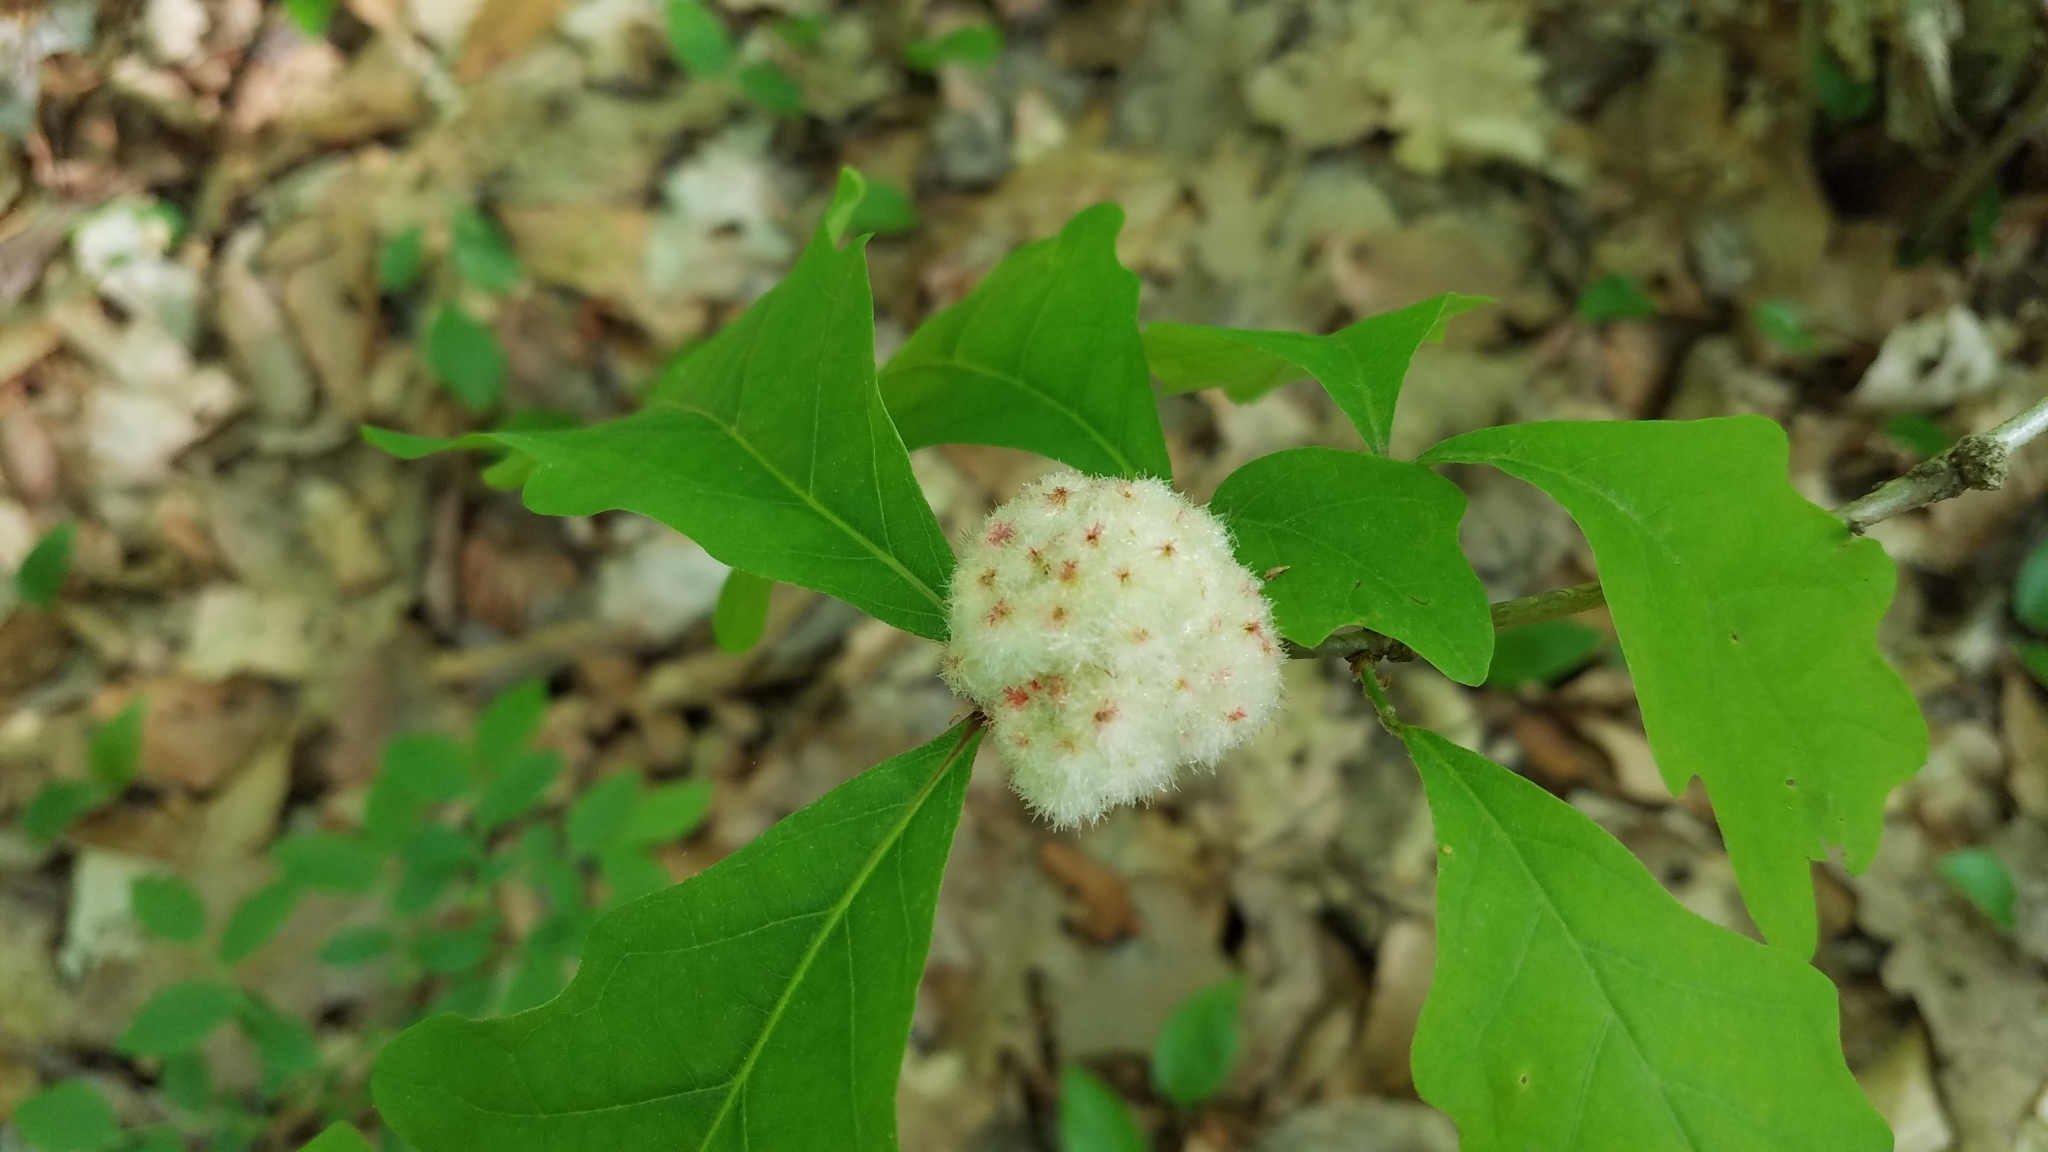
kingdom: Animalia
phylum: Arthropoda
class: Insecta
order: Hymenoptera
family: Cynipidae
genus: Callirhytis
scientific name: Callirhytis
